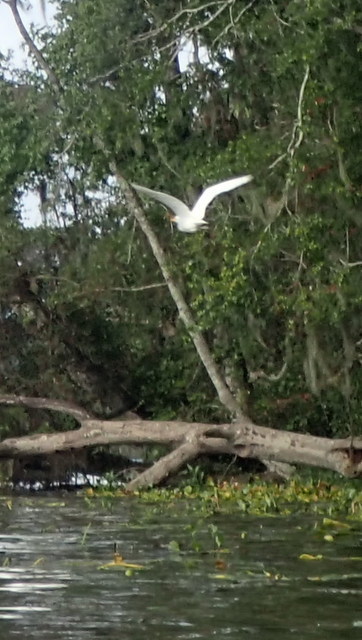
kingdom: Animalia
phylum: Chordata
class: Aves
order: Pelecaniformes
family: Ardeidae
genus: Ardea
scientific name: Ardea alba
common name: Great egret
